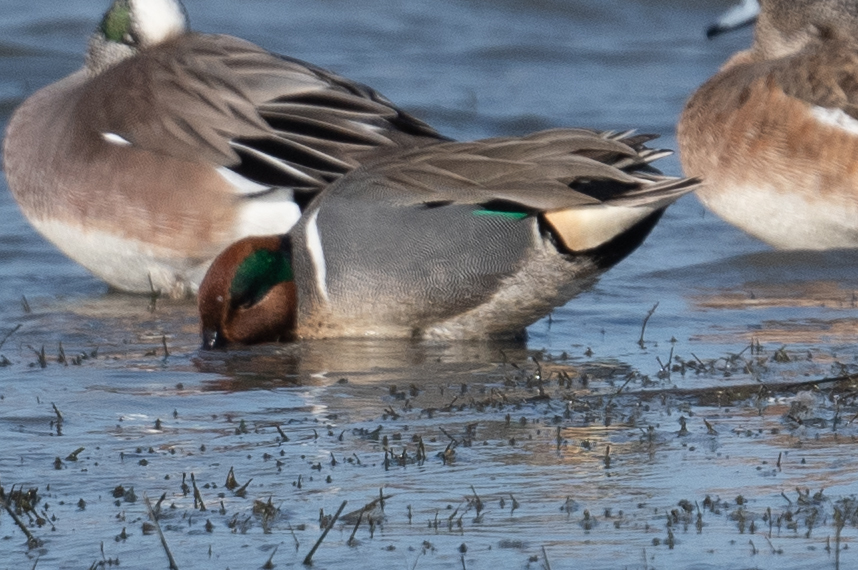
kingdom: Animalia
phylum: Chordata
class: Aves
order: Anseriformes
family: Anatidae
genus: Anas
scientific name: Anas crecca
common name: Eurasian teal
